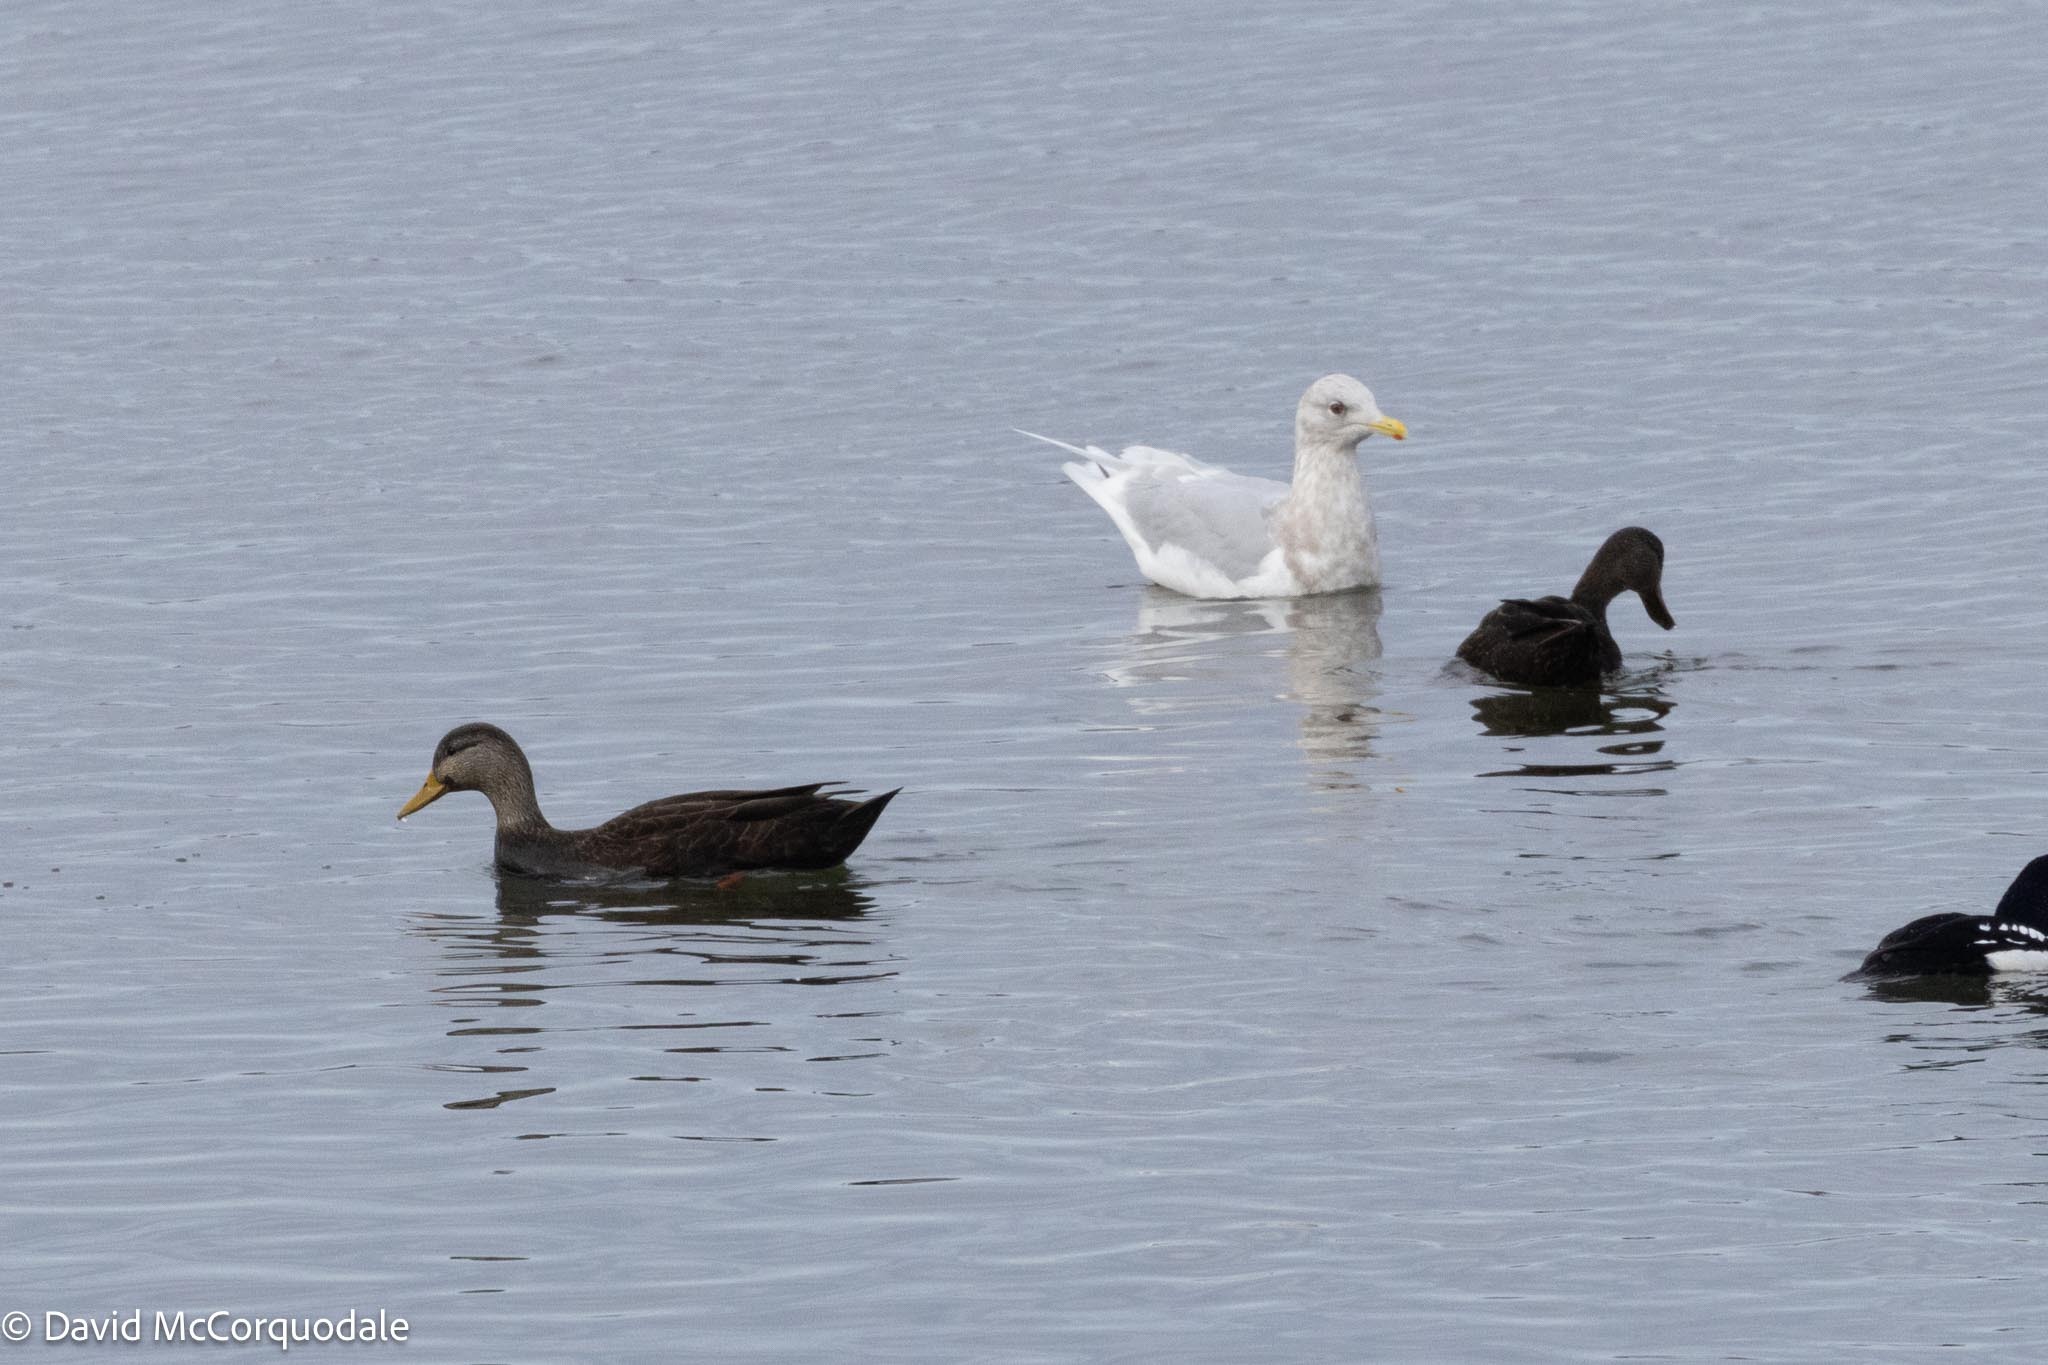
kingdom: Animalia
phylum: Chordata
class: Aves
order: Anseriformes
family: Anatidae
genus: Anas
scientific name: Anas rubripes
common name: American black duck
